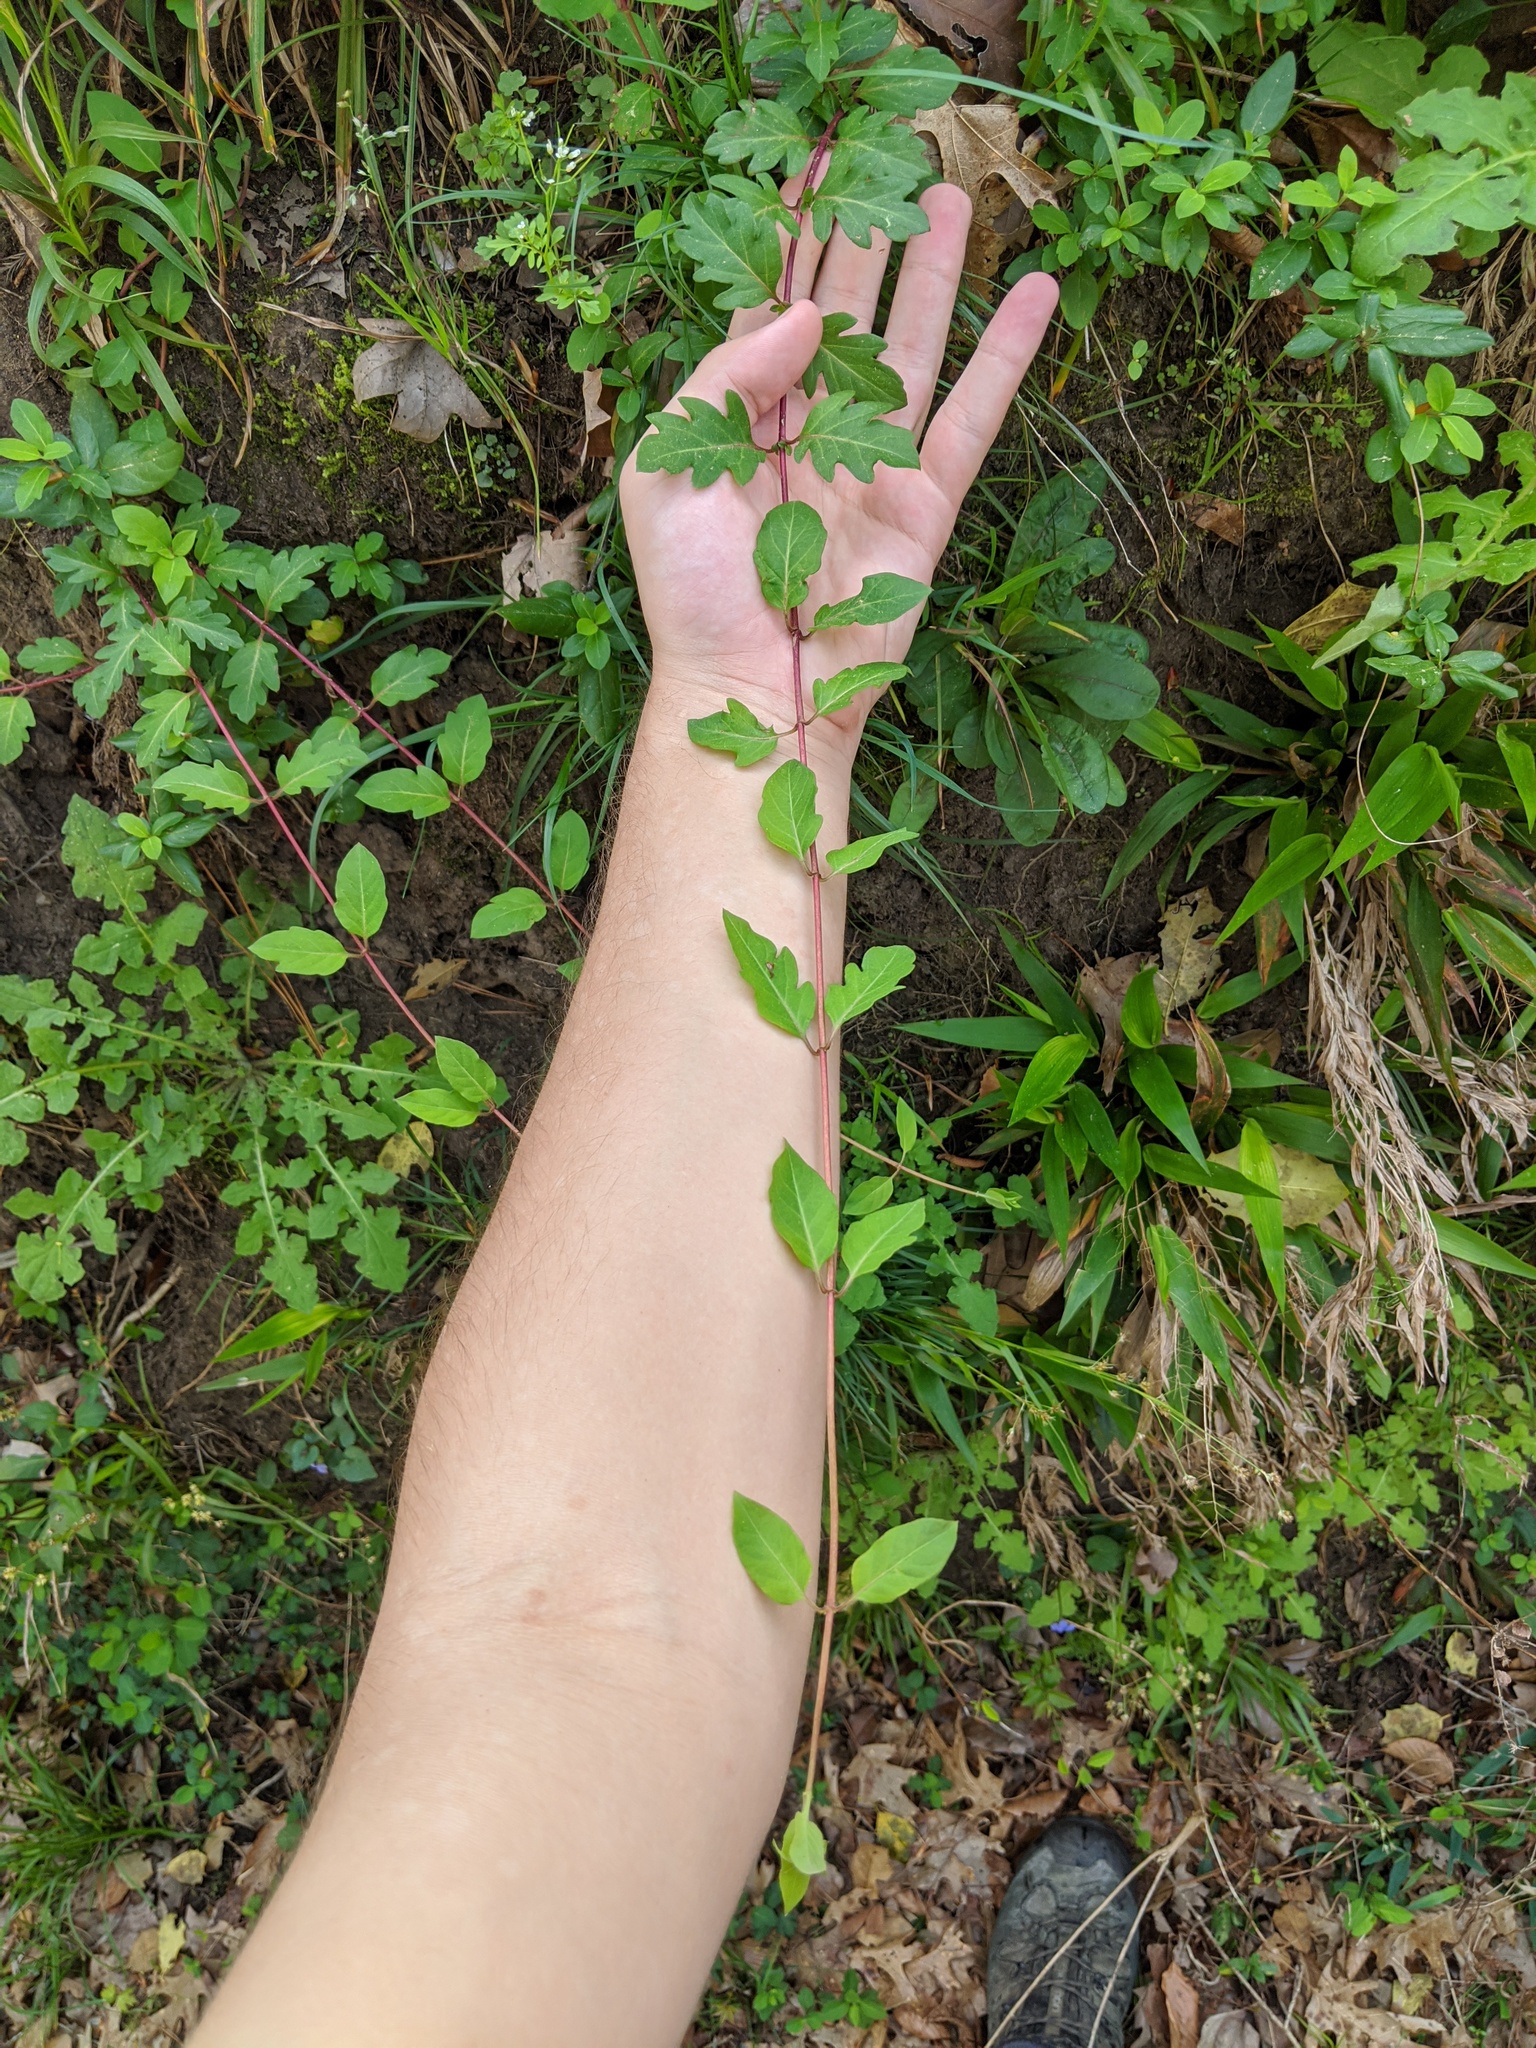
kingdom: Plantae
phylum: Tracheophyta
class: Magnoliopsida
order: Dipsacales
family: Caprifoliaceae
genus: Lonicera
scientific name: Lonicera japonica
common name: Japanese honeysuckle
